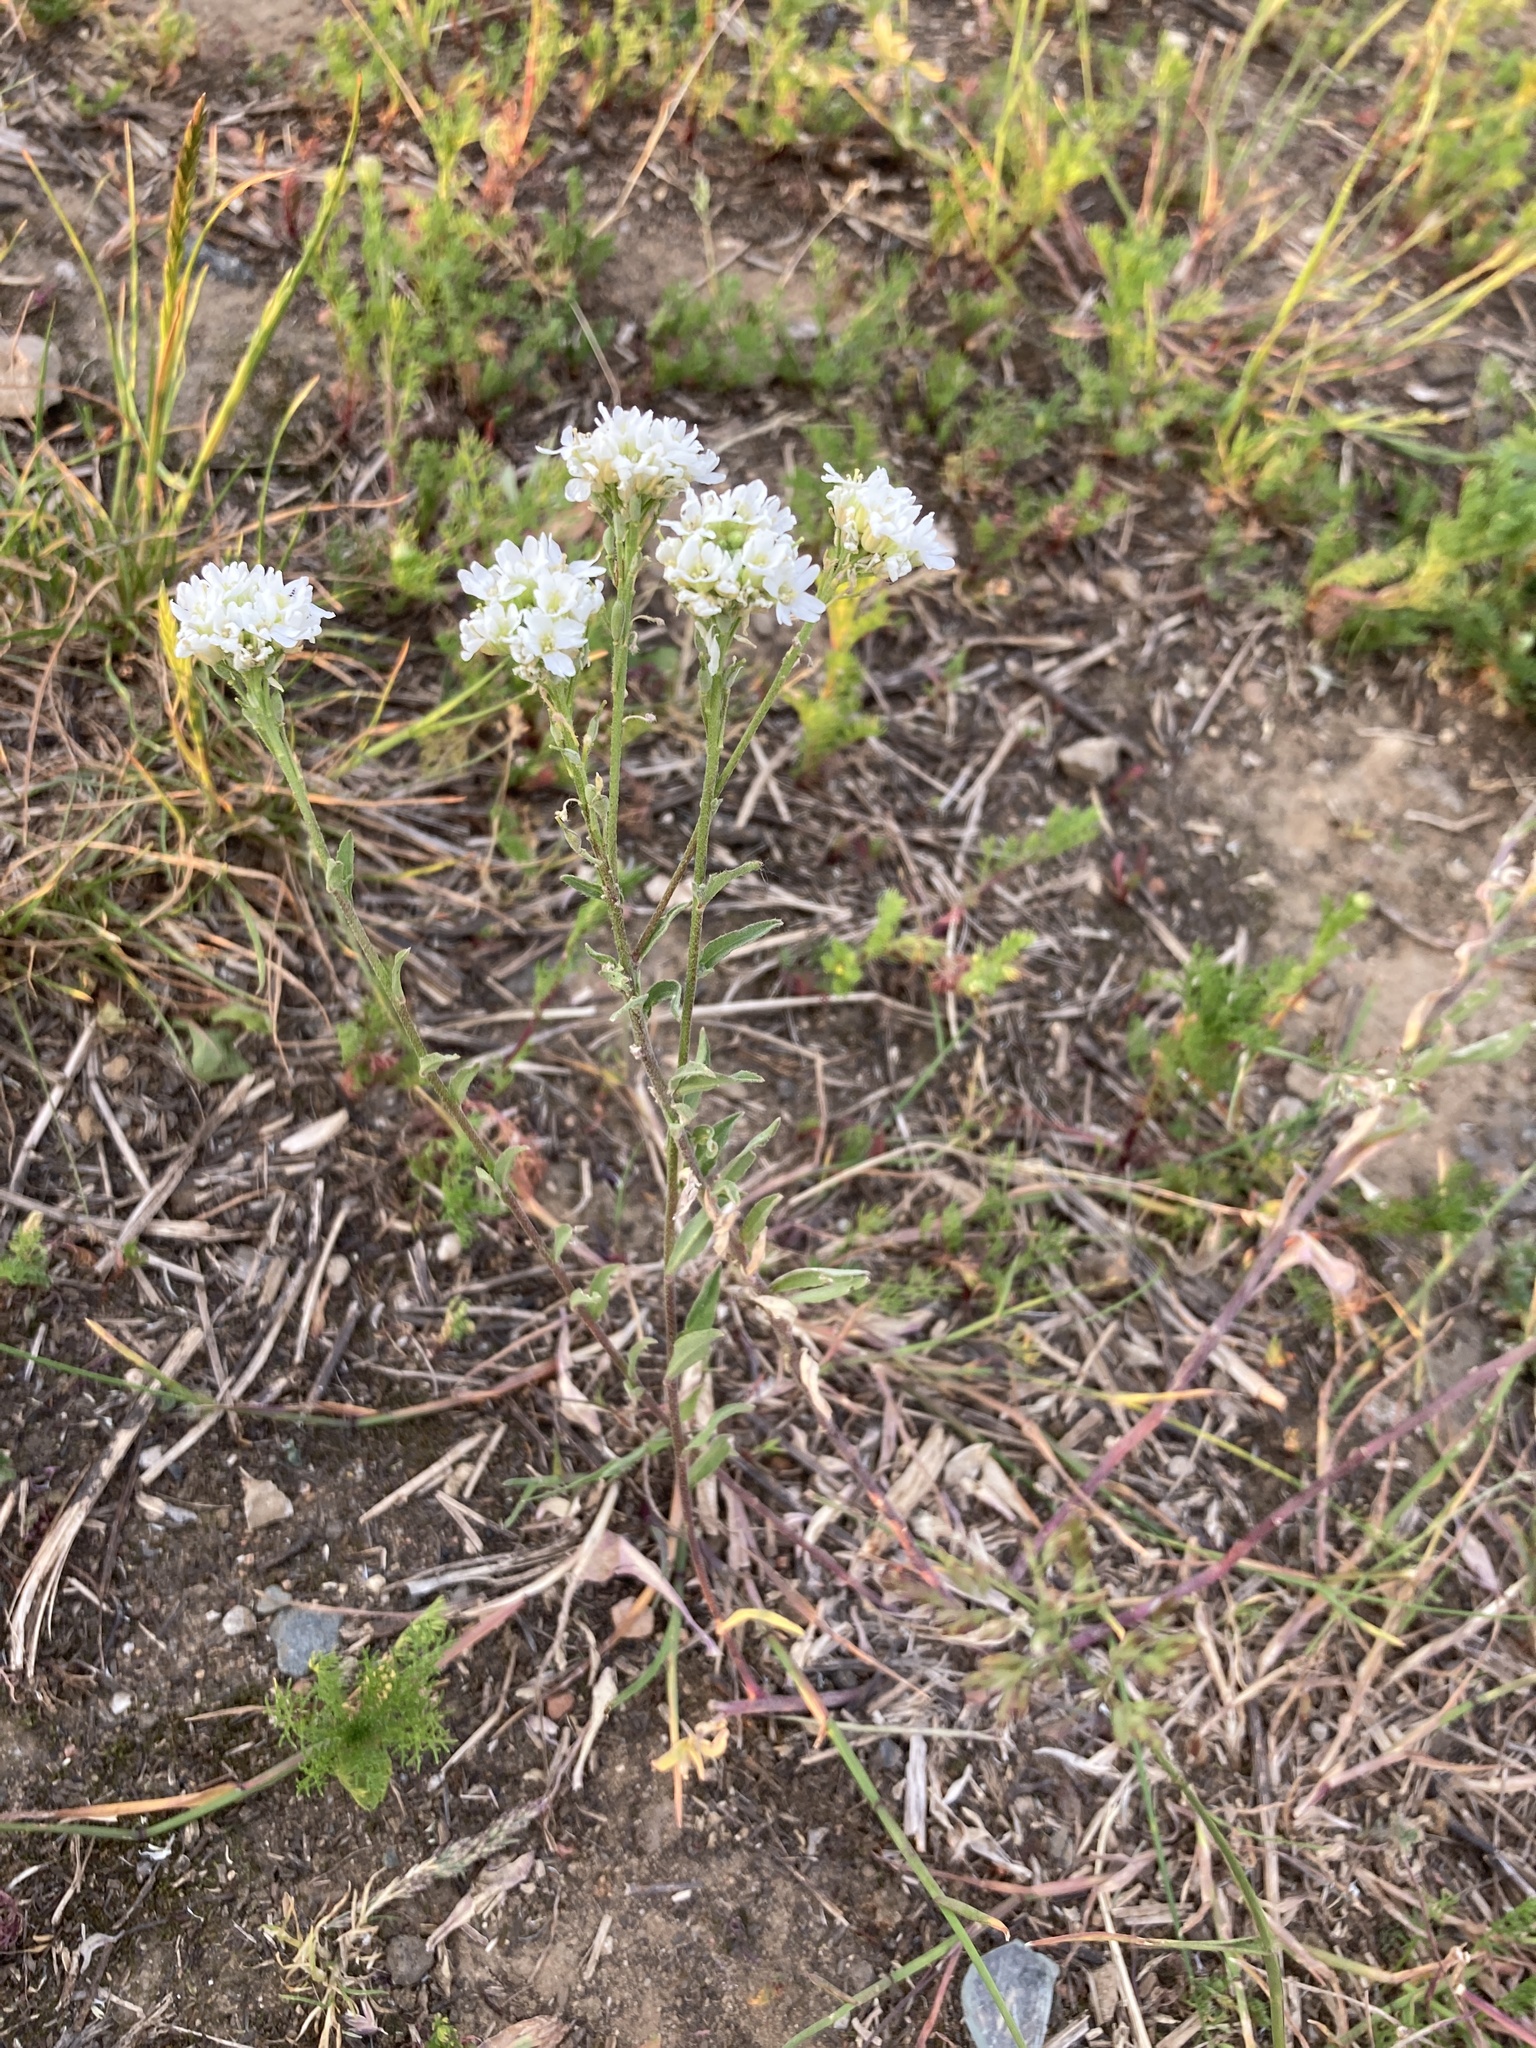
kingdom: Plantae
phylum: Tracheophyta
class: Magnoliopsida
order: Brassicales
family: Brassicaceae
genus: Berteroa
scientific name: Berteroa incana
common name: Hoary alison
